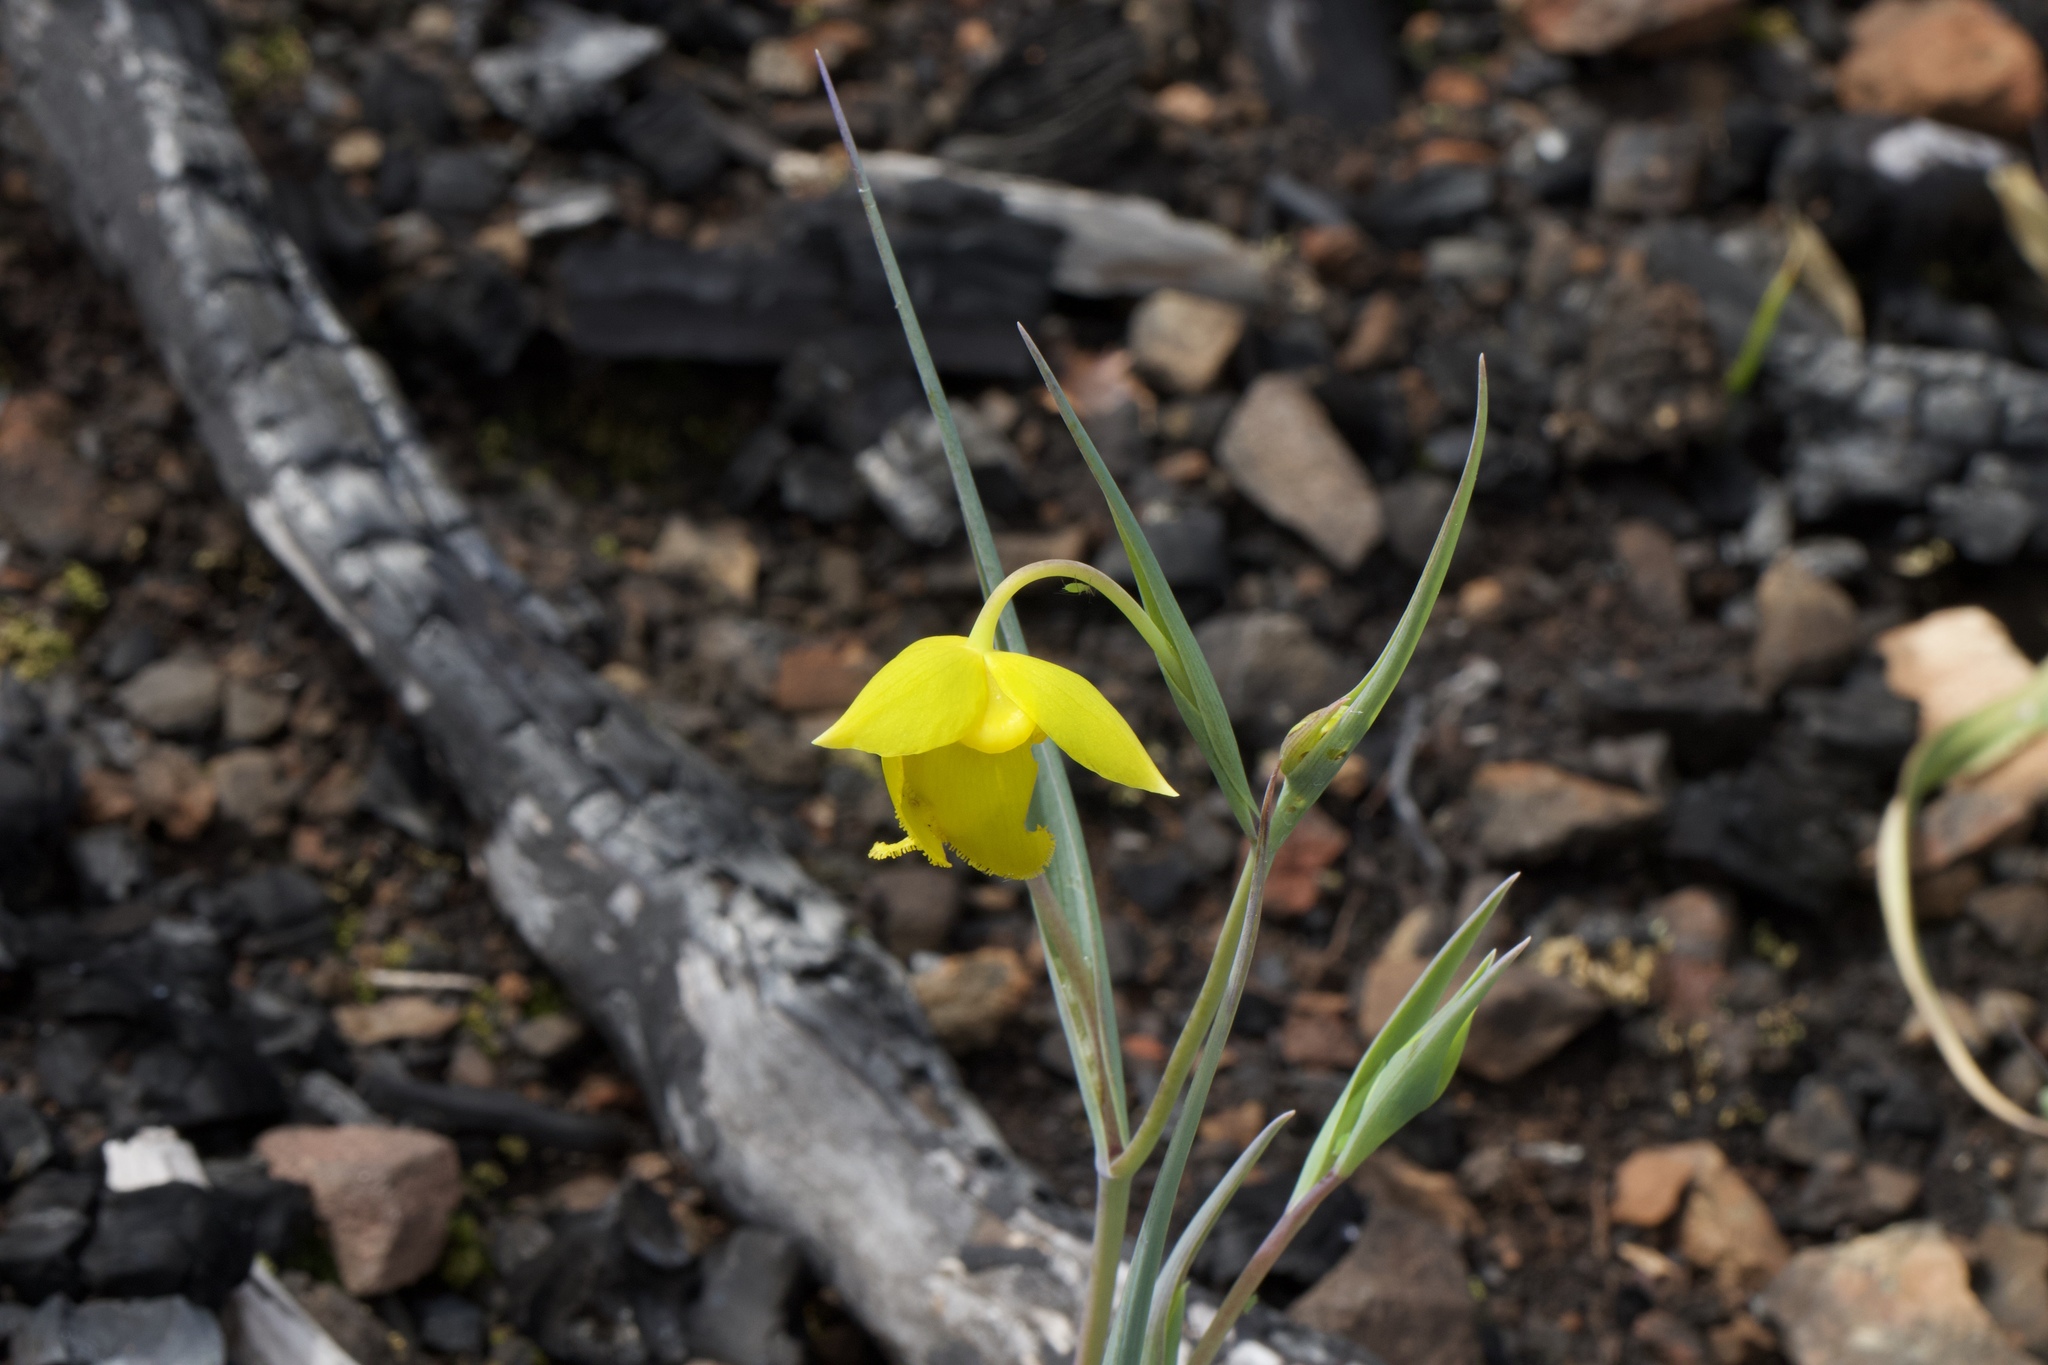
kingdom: Plantae
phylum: Tracheophyta
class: Liliopsida
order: Liliales
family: Liliaceae
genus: Calochortus
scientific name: Calochortus amabilis
